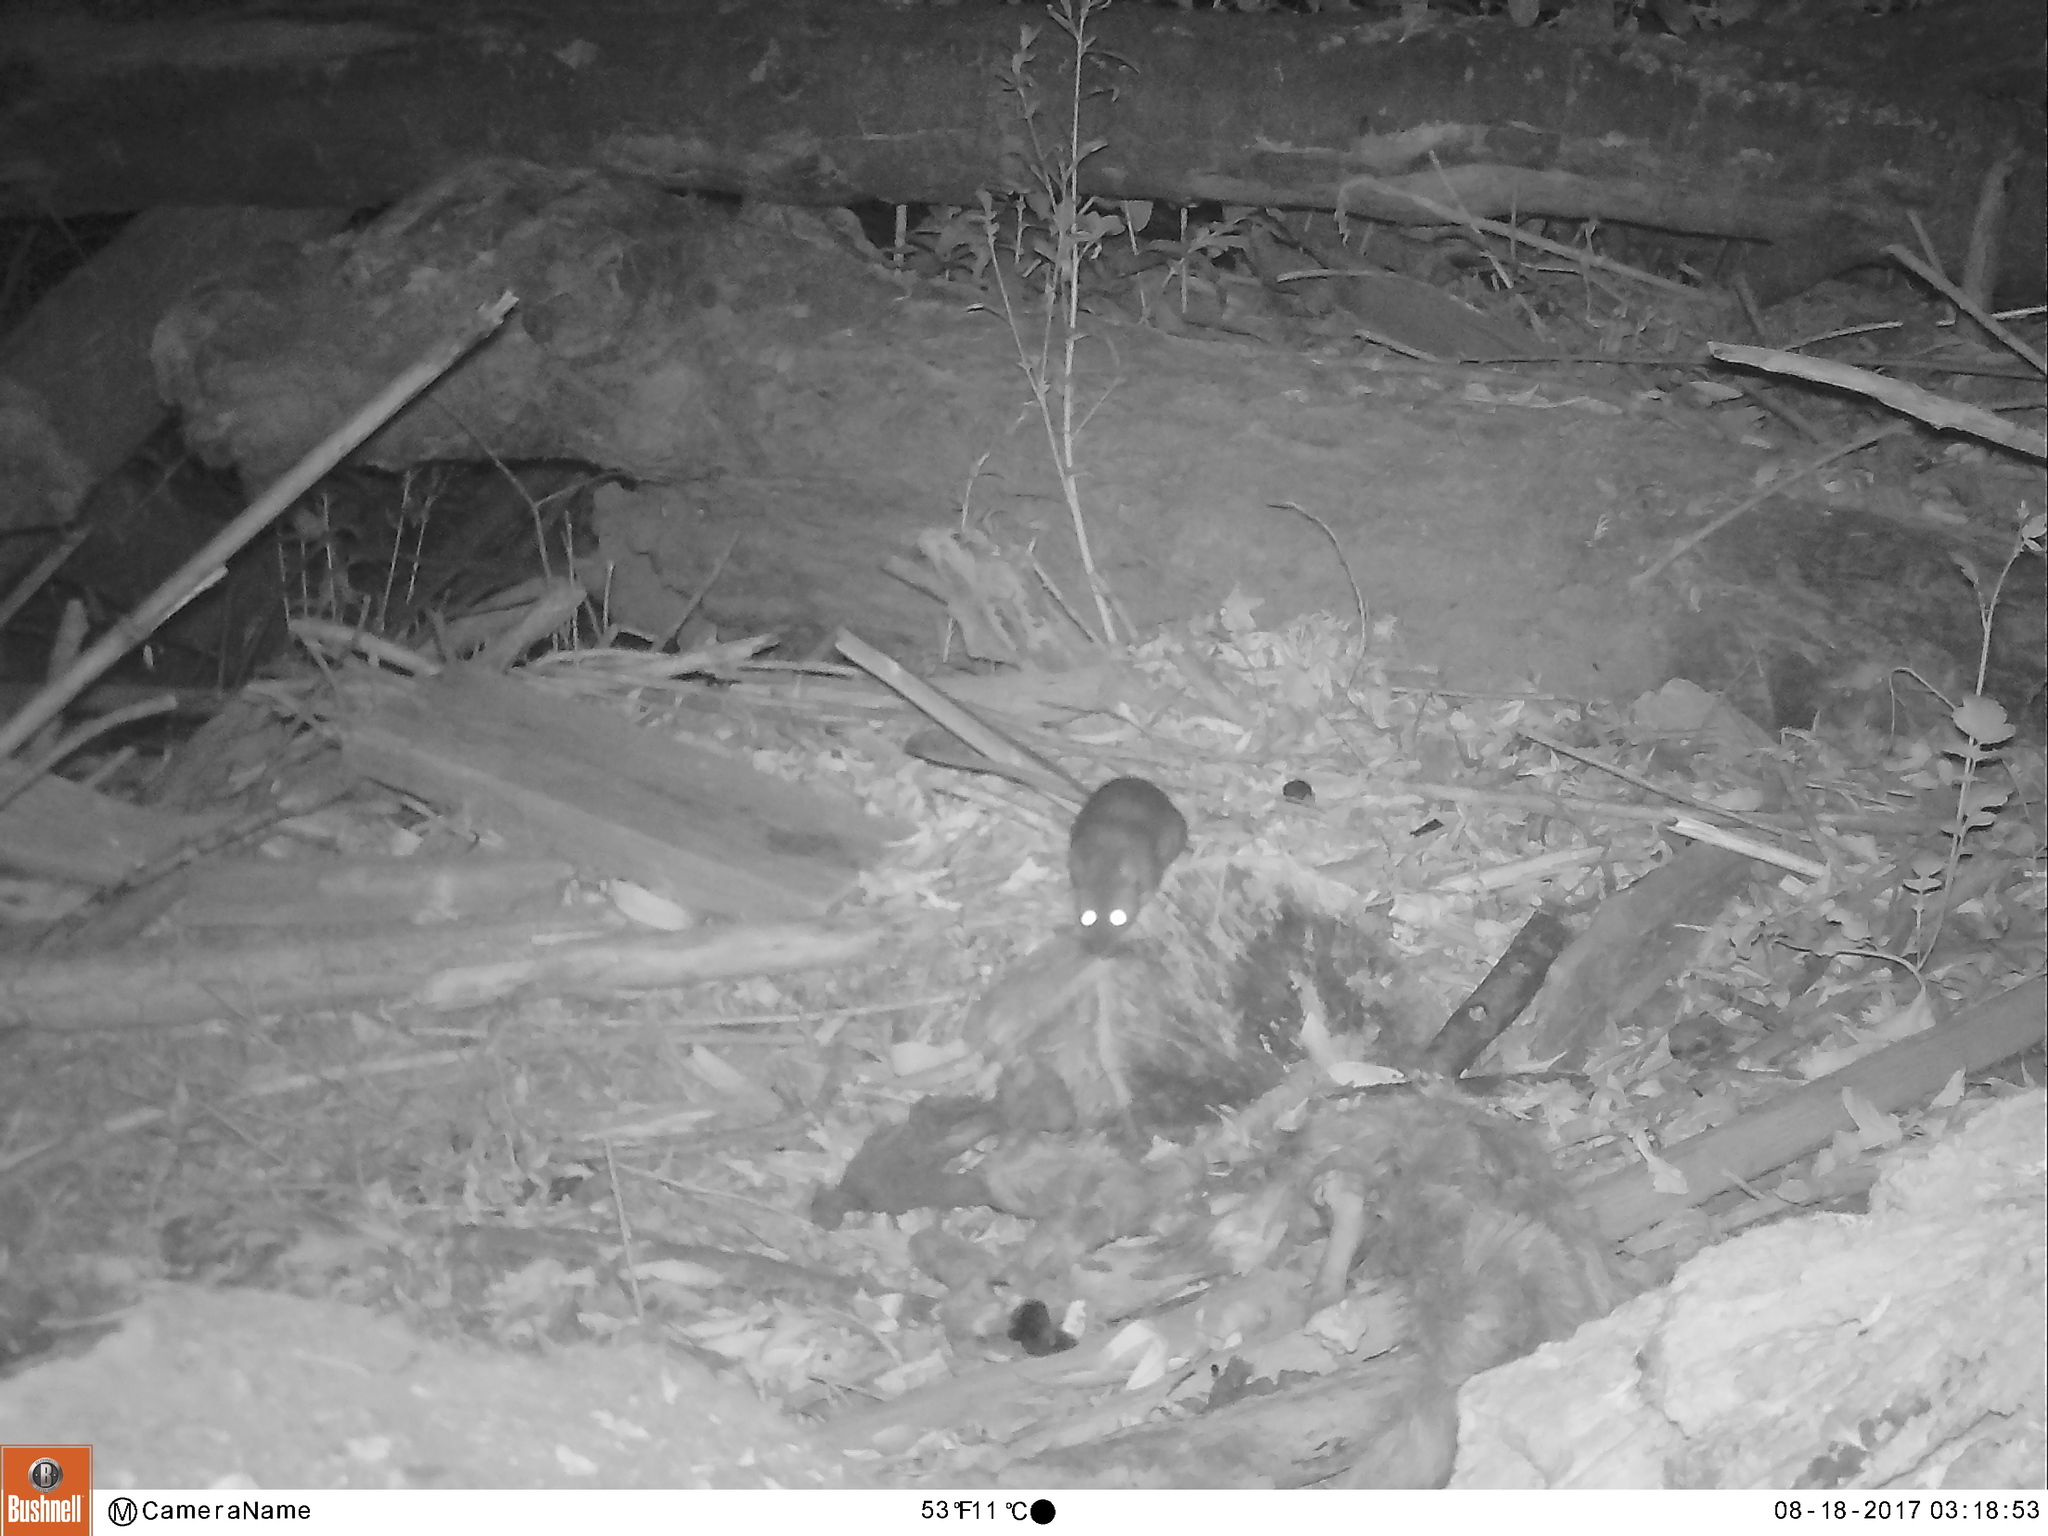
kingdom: Animalia
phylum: Chordata
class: Mammalia
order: Rodentia
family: Cricetidae
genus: Neotoma
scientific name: Neotoma fuscipes
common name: Dusky-footed woodrat
